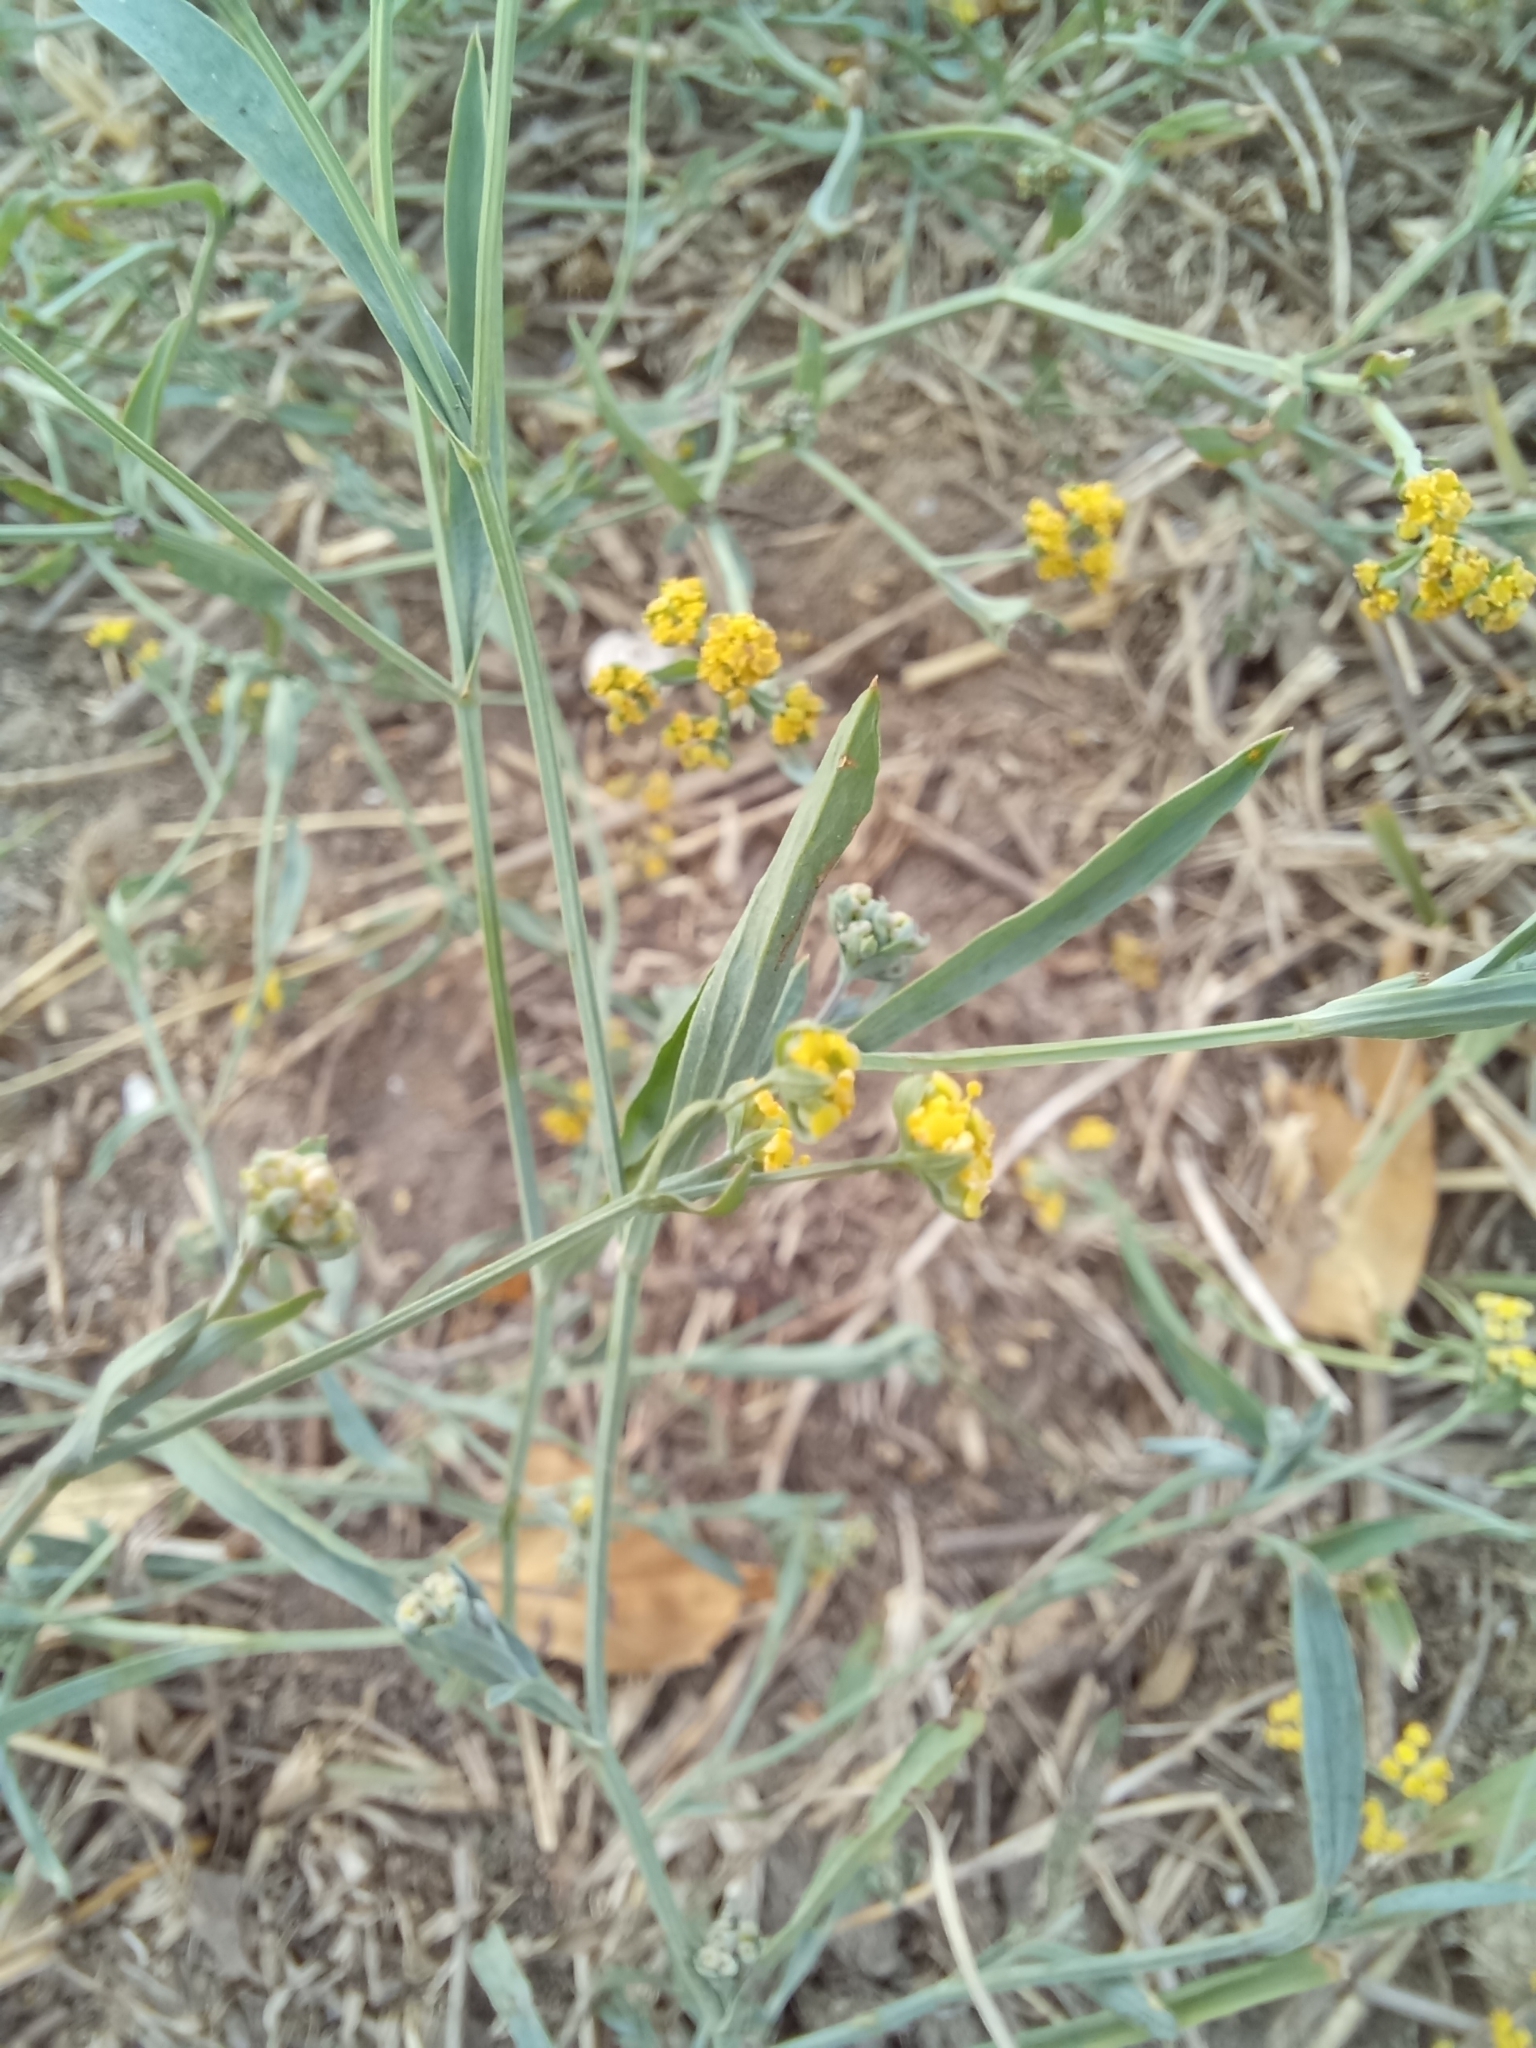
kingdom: Plantae
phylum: Tracheophyta
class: Magnoliopsida
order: Apiales
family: Apiaceae
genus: Bupleurum
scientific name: Bupleurum falcatum
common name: Sickle-leaved hare's-ear
